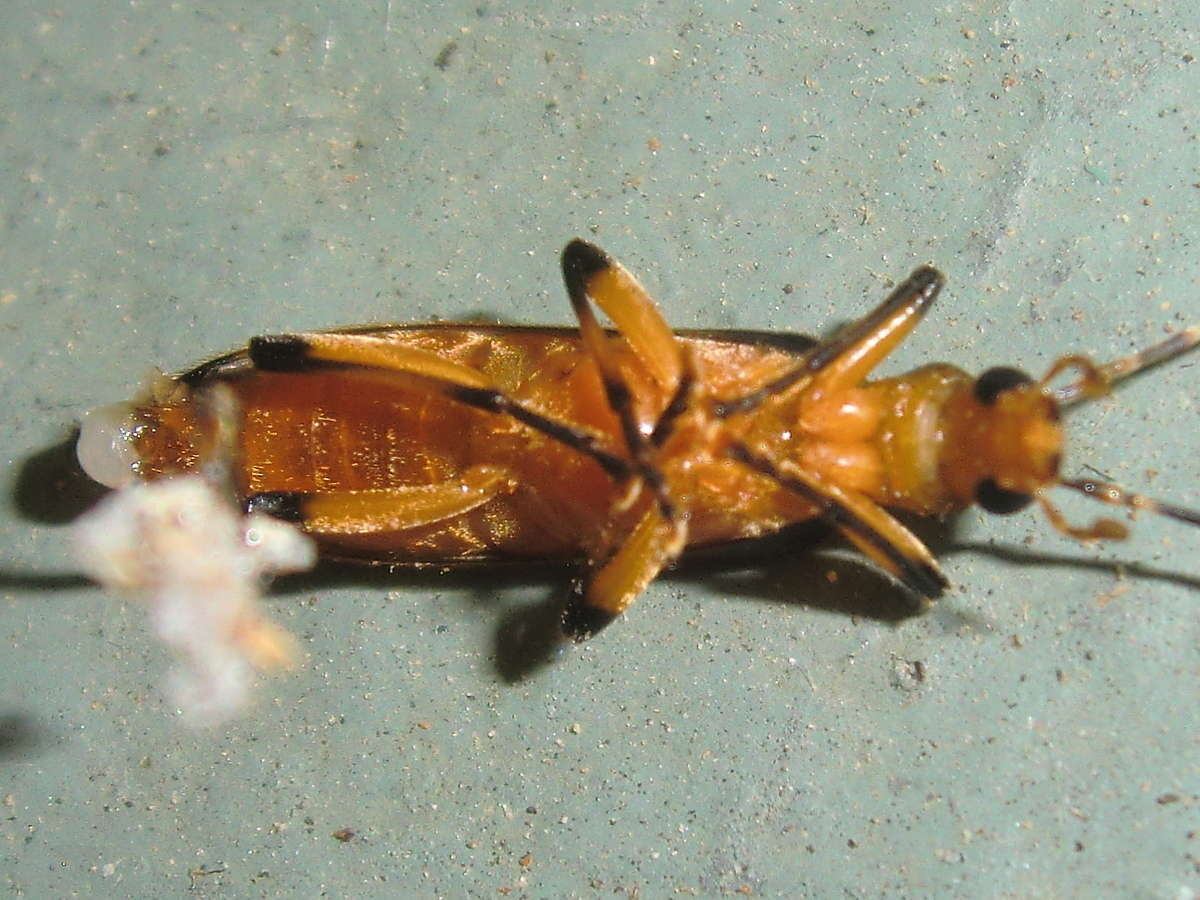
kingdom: Animalia
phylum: Arthropoda
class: Insecta
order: Coleoptera
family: Oedemeridae
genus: Copidita
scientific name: Copidita
